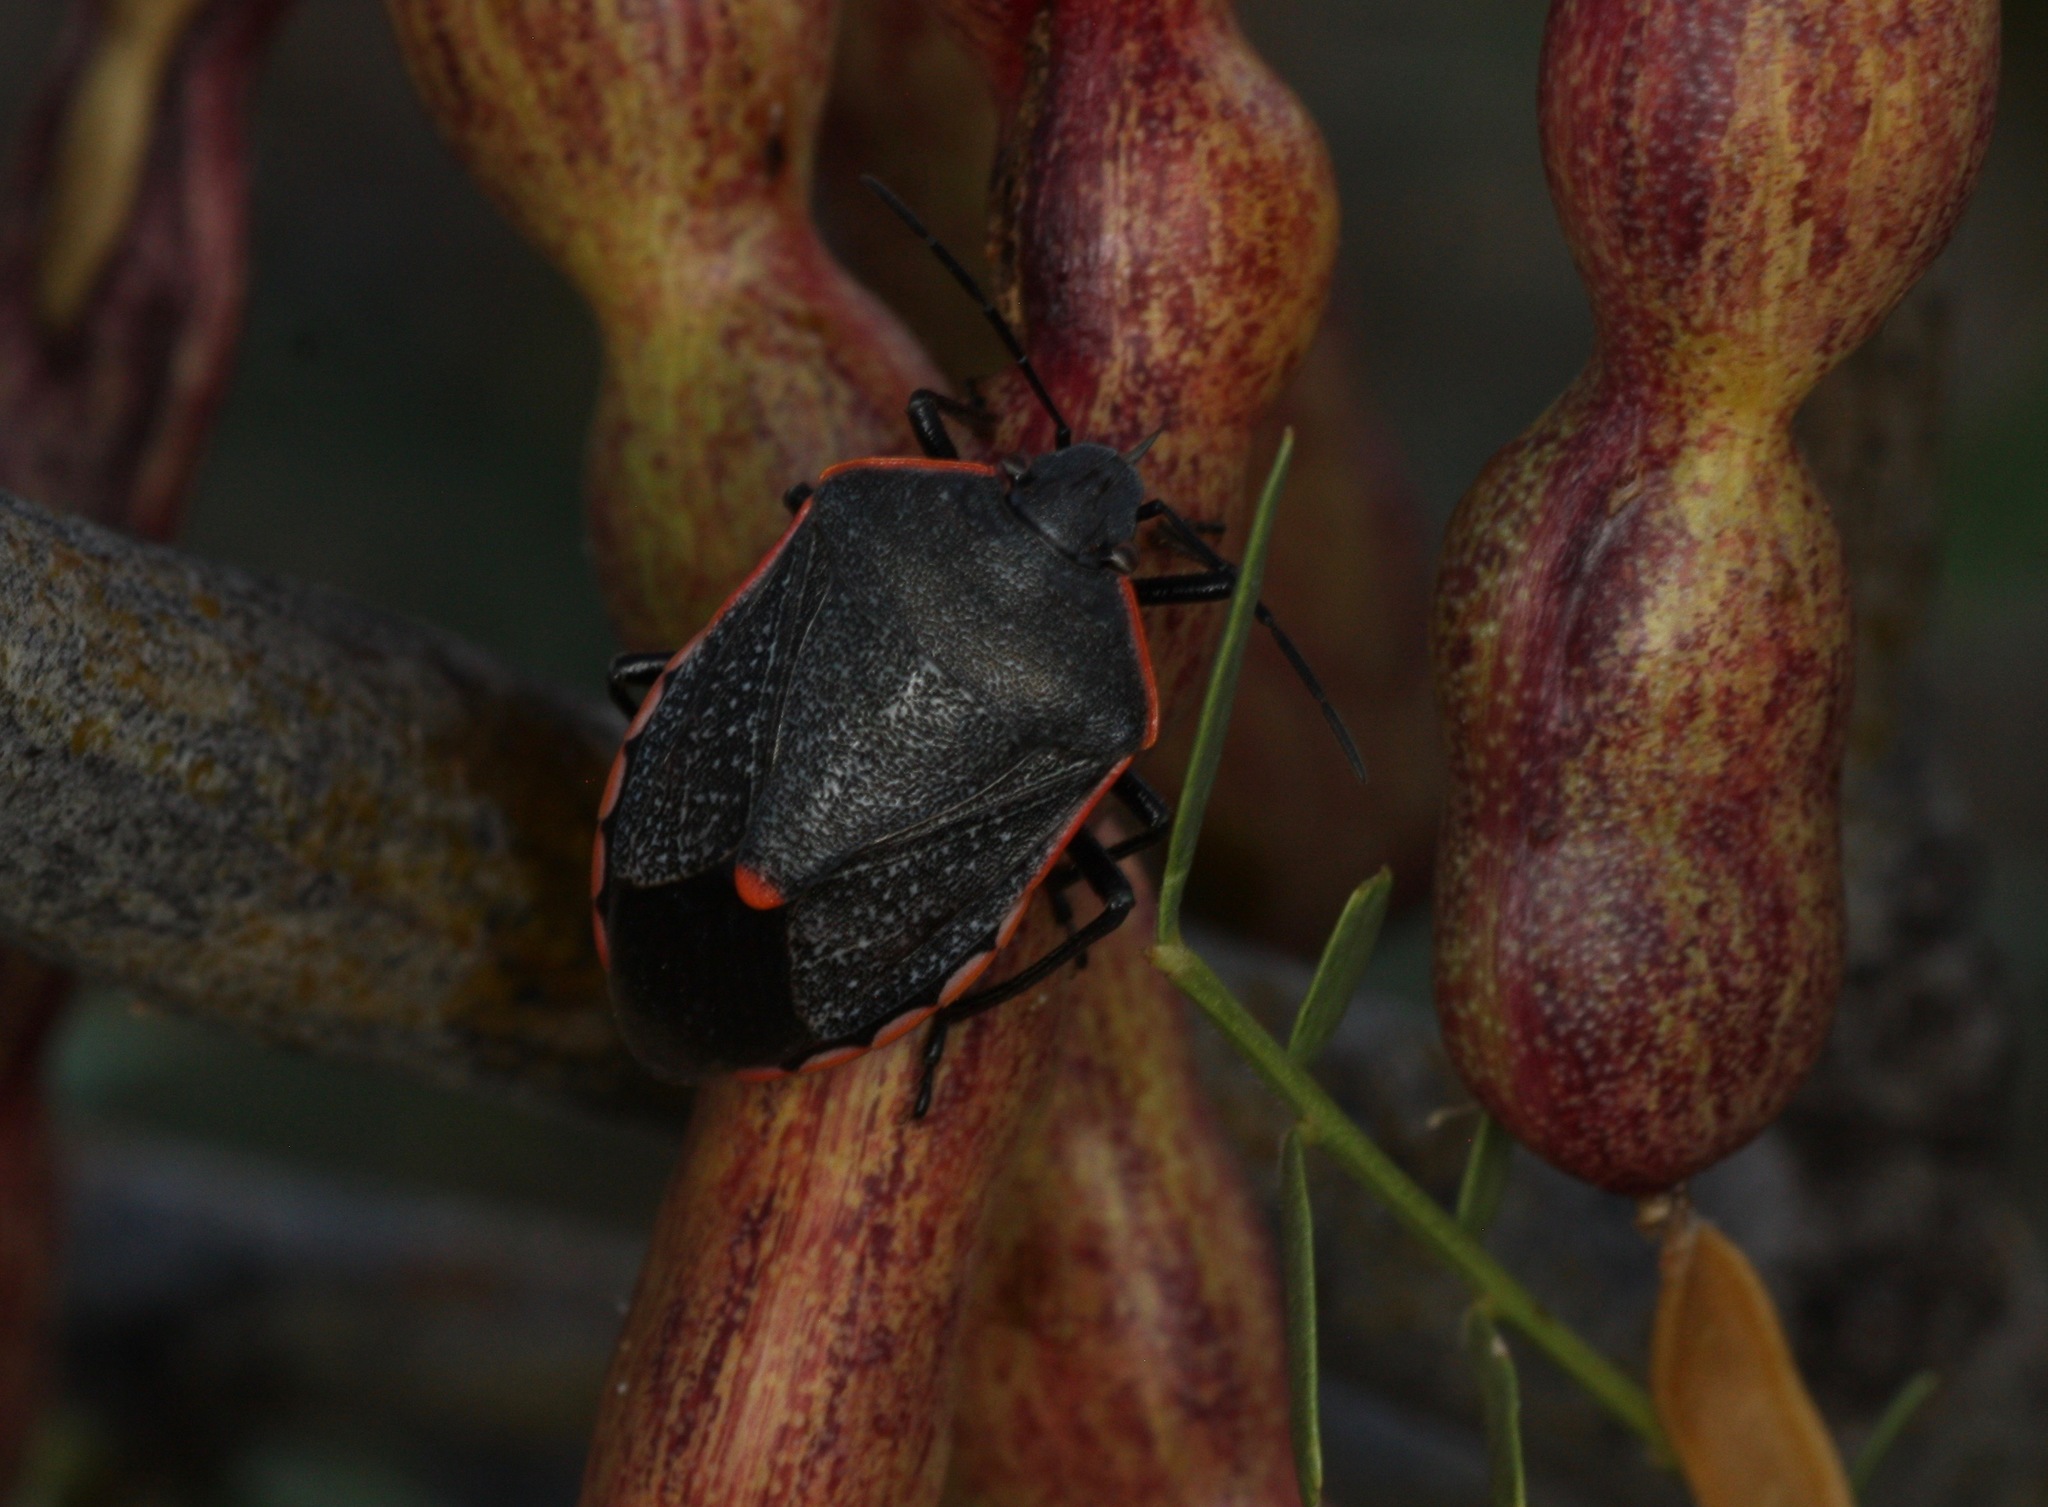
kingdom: Animalia
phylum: Arthropoda
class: Insecta
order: Hemiptera
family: Pentatomidae
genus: Chlorochroa
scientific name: Chlorochroa ligata
